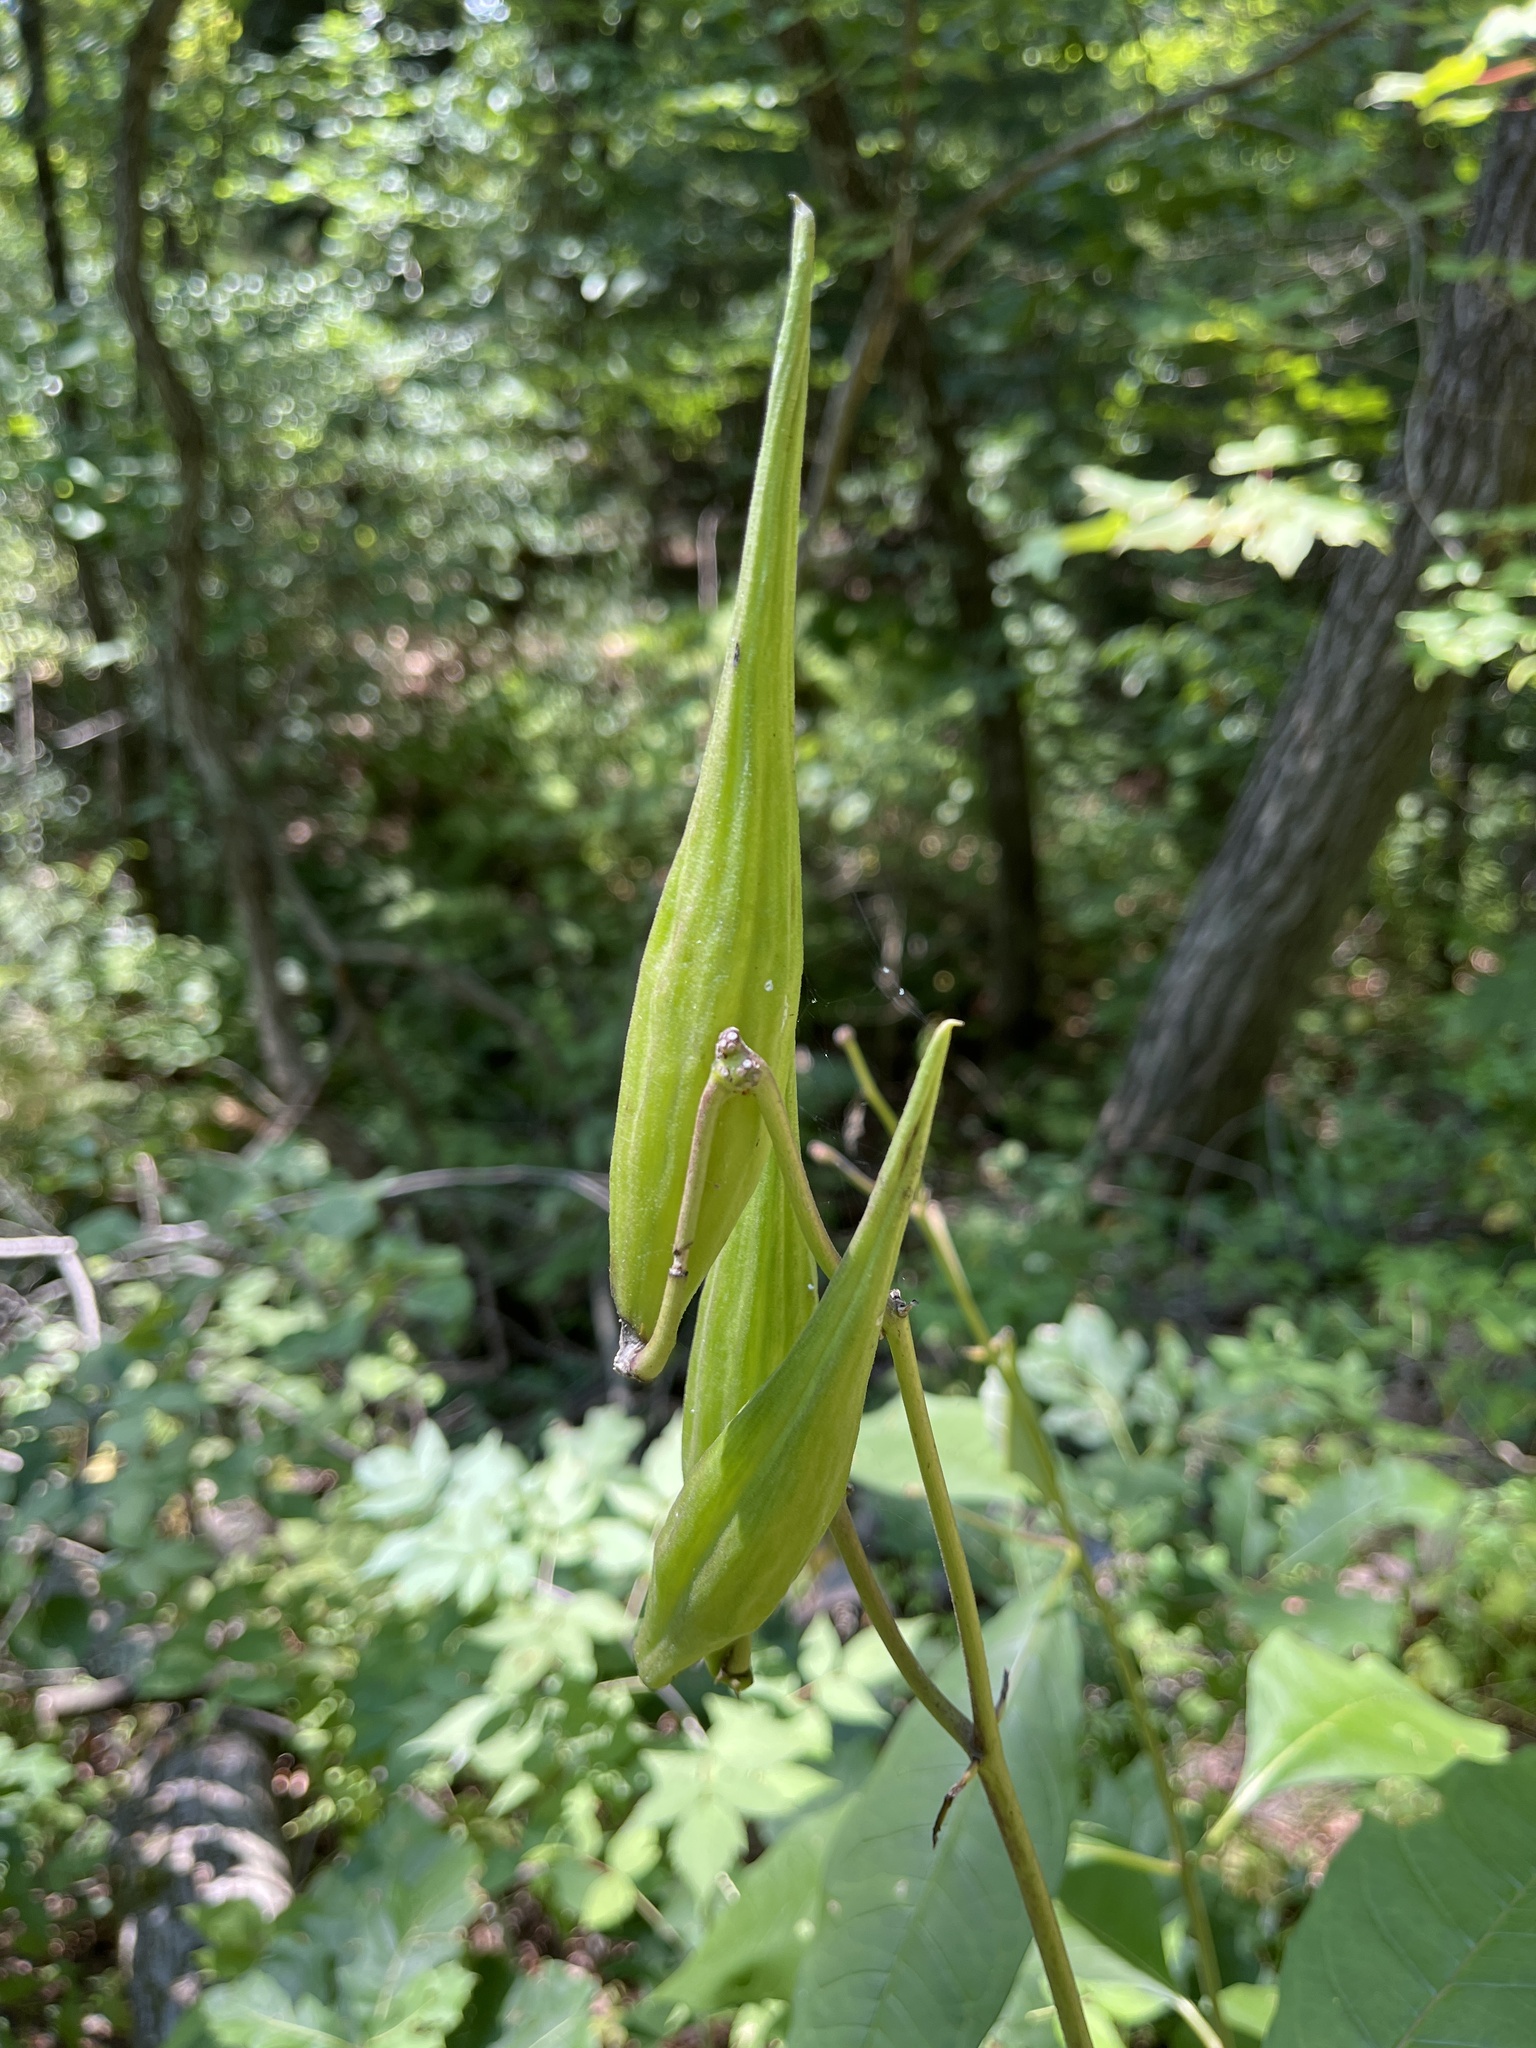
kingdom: Plantae
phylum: Tracheophyta
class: Magnoliopsida
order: Gentianales
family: Apocynaceae
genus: Asclepias
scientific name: Asclepias exaltata
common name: Poke milkweed
